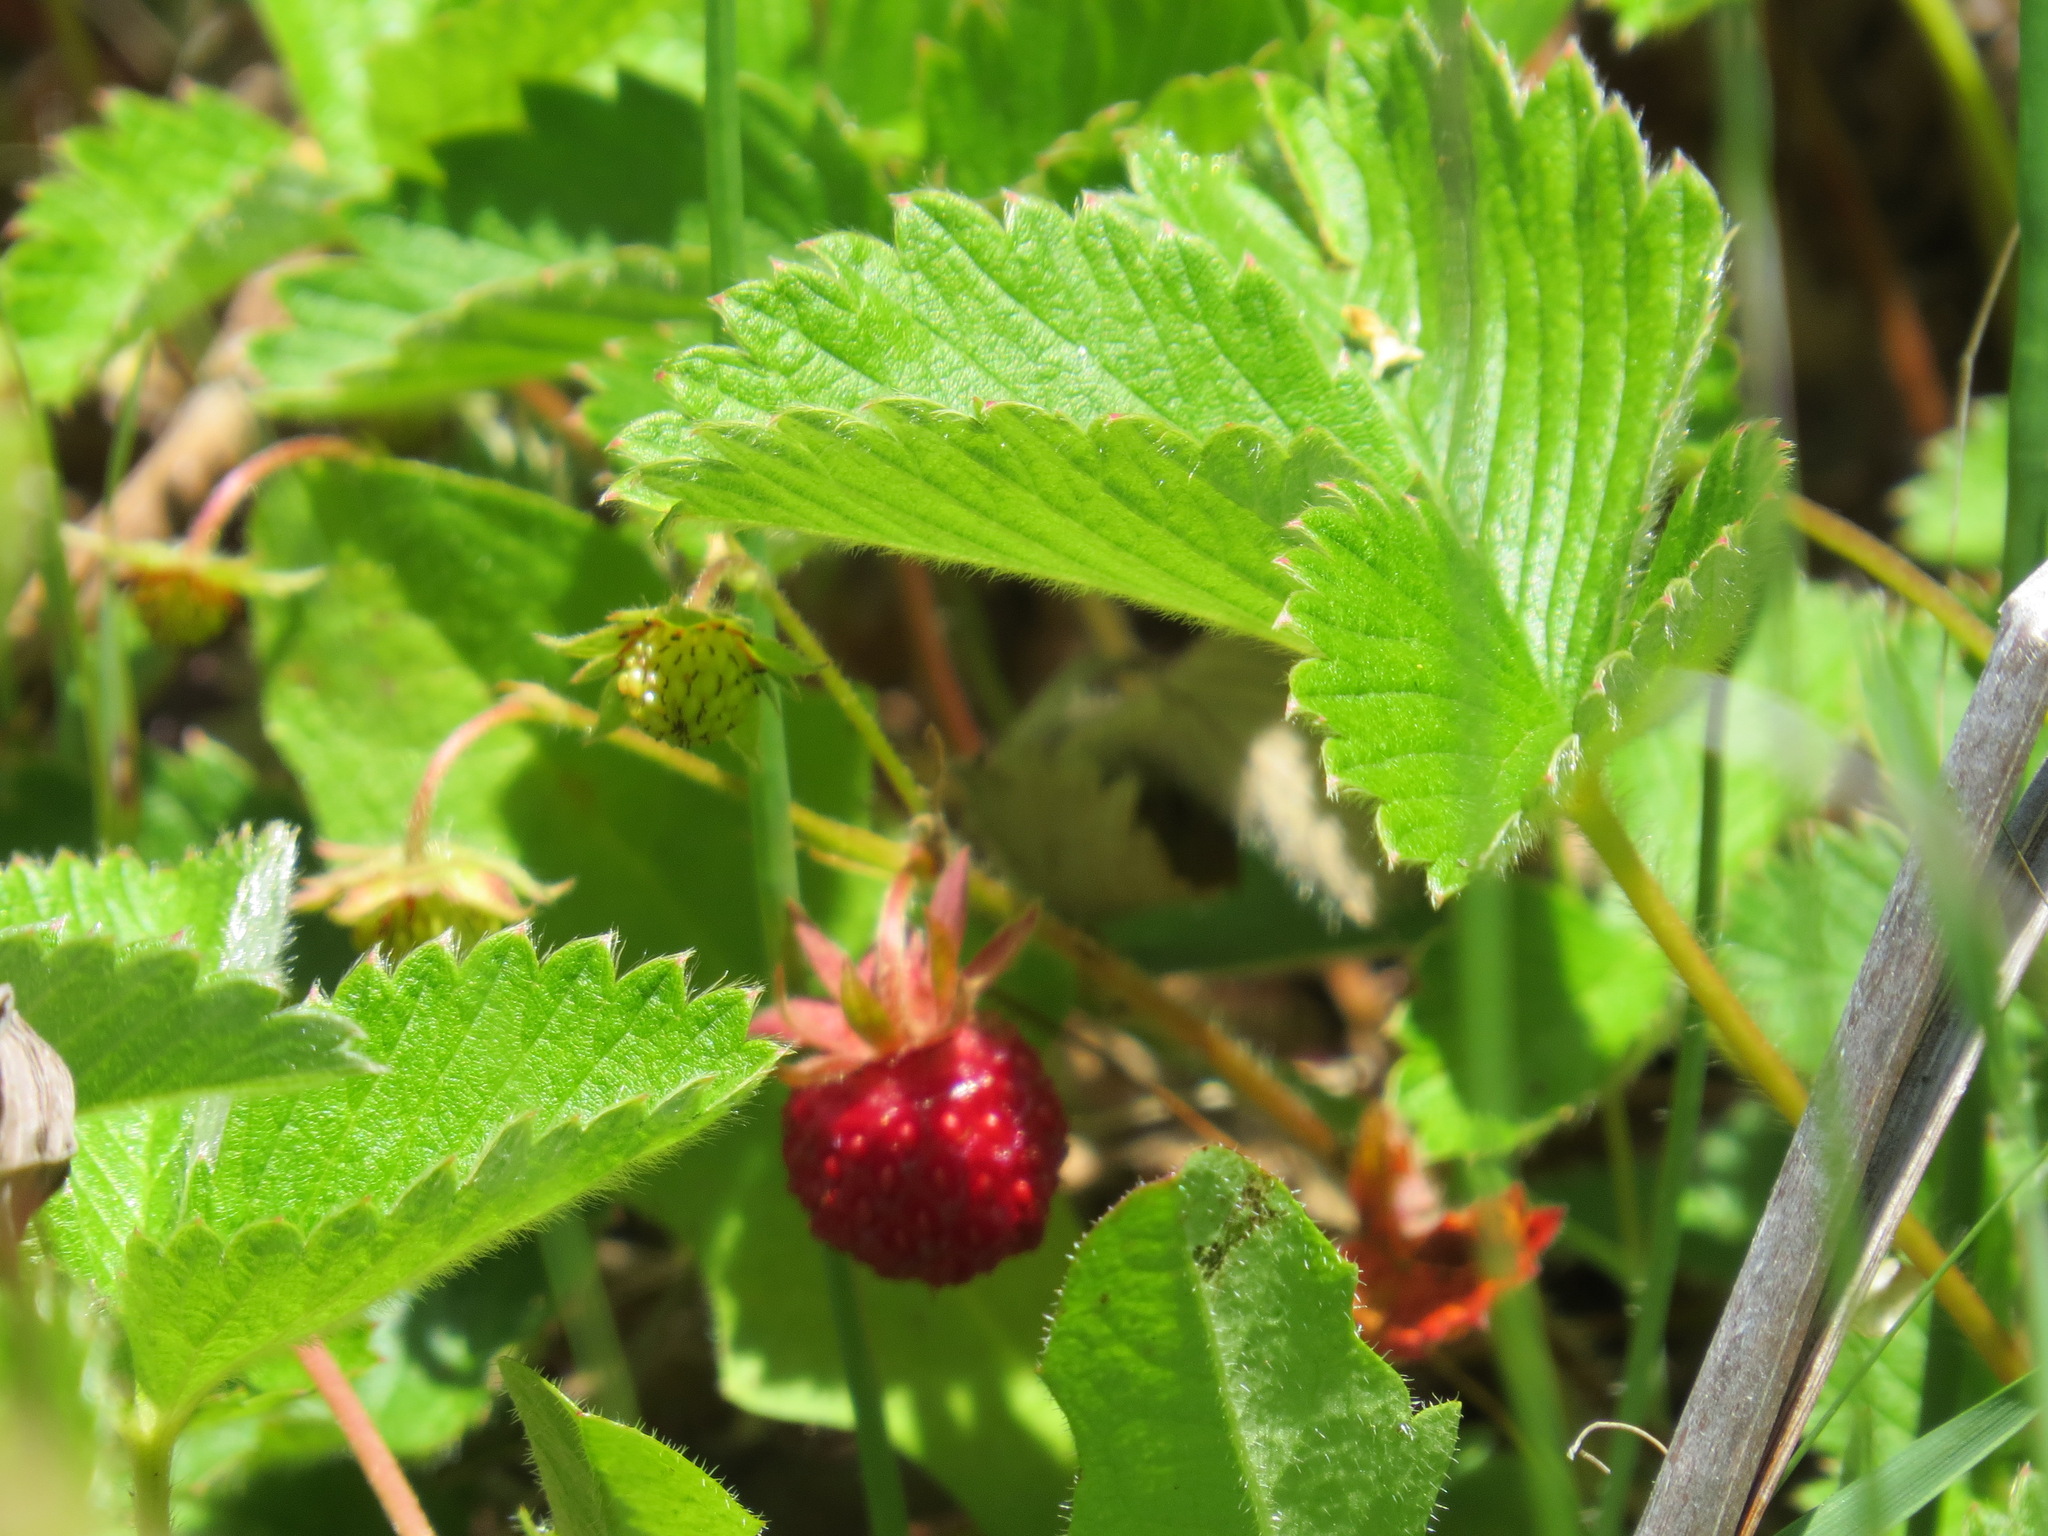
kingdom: Plantae
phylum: Tracheophyta
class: Magnoliopsida
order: Rosales
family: Rosaceae
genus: Fragaria
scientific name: Fragaria vesca
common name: Wild strawberry
